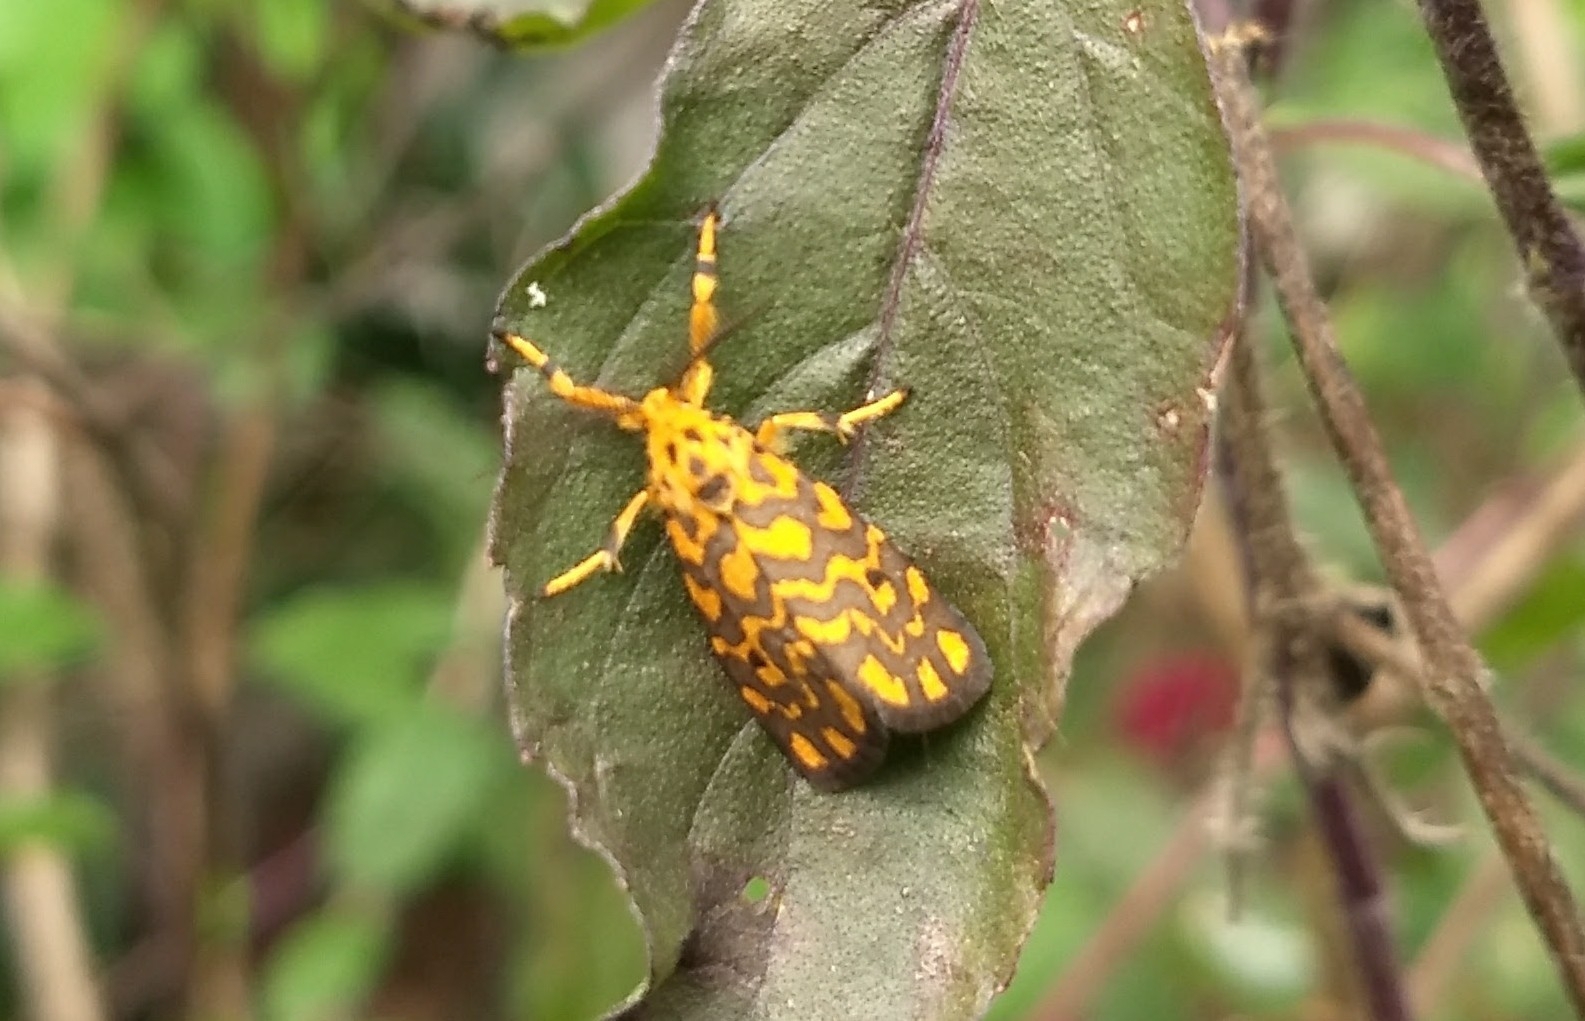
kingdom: Animalia
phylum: Arthropoda
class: Insecta
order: Lepidoptera
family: Erebidae
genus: Nepita
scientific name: Nepita conferta
